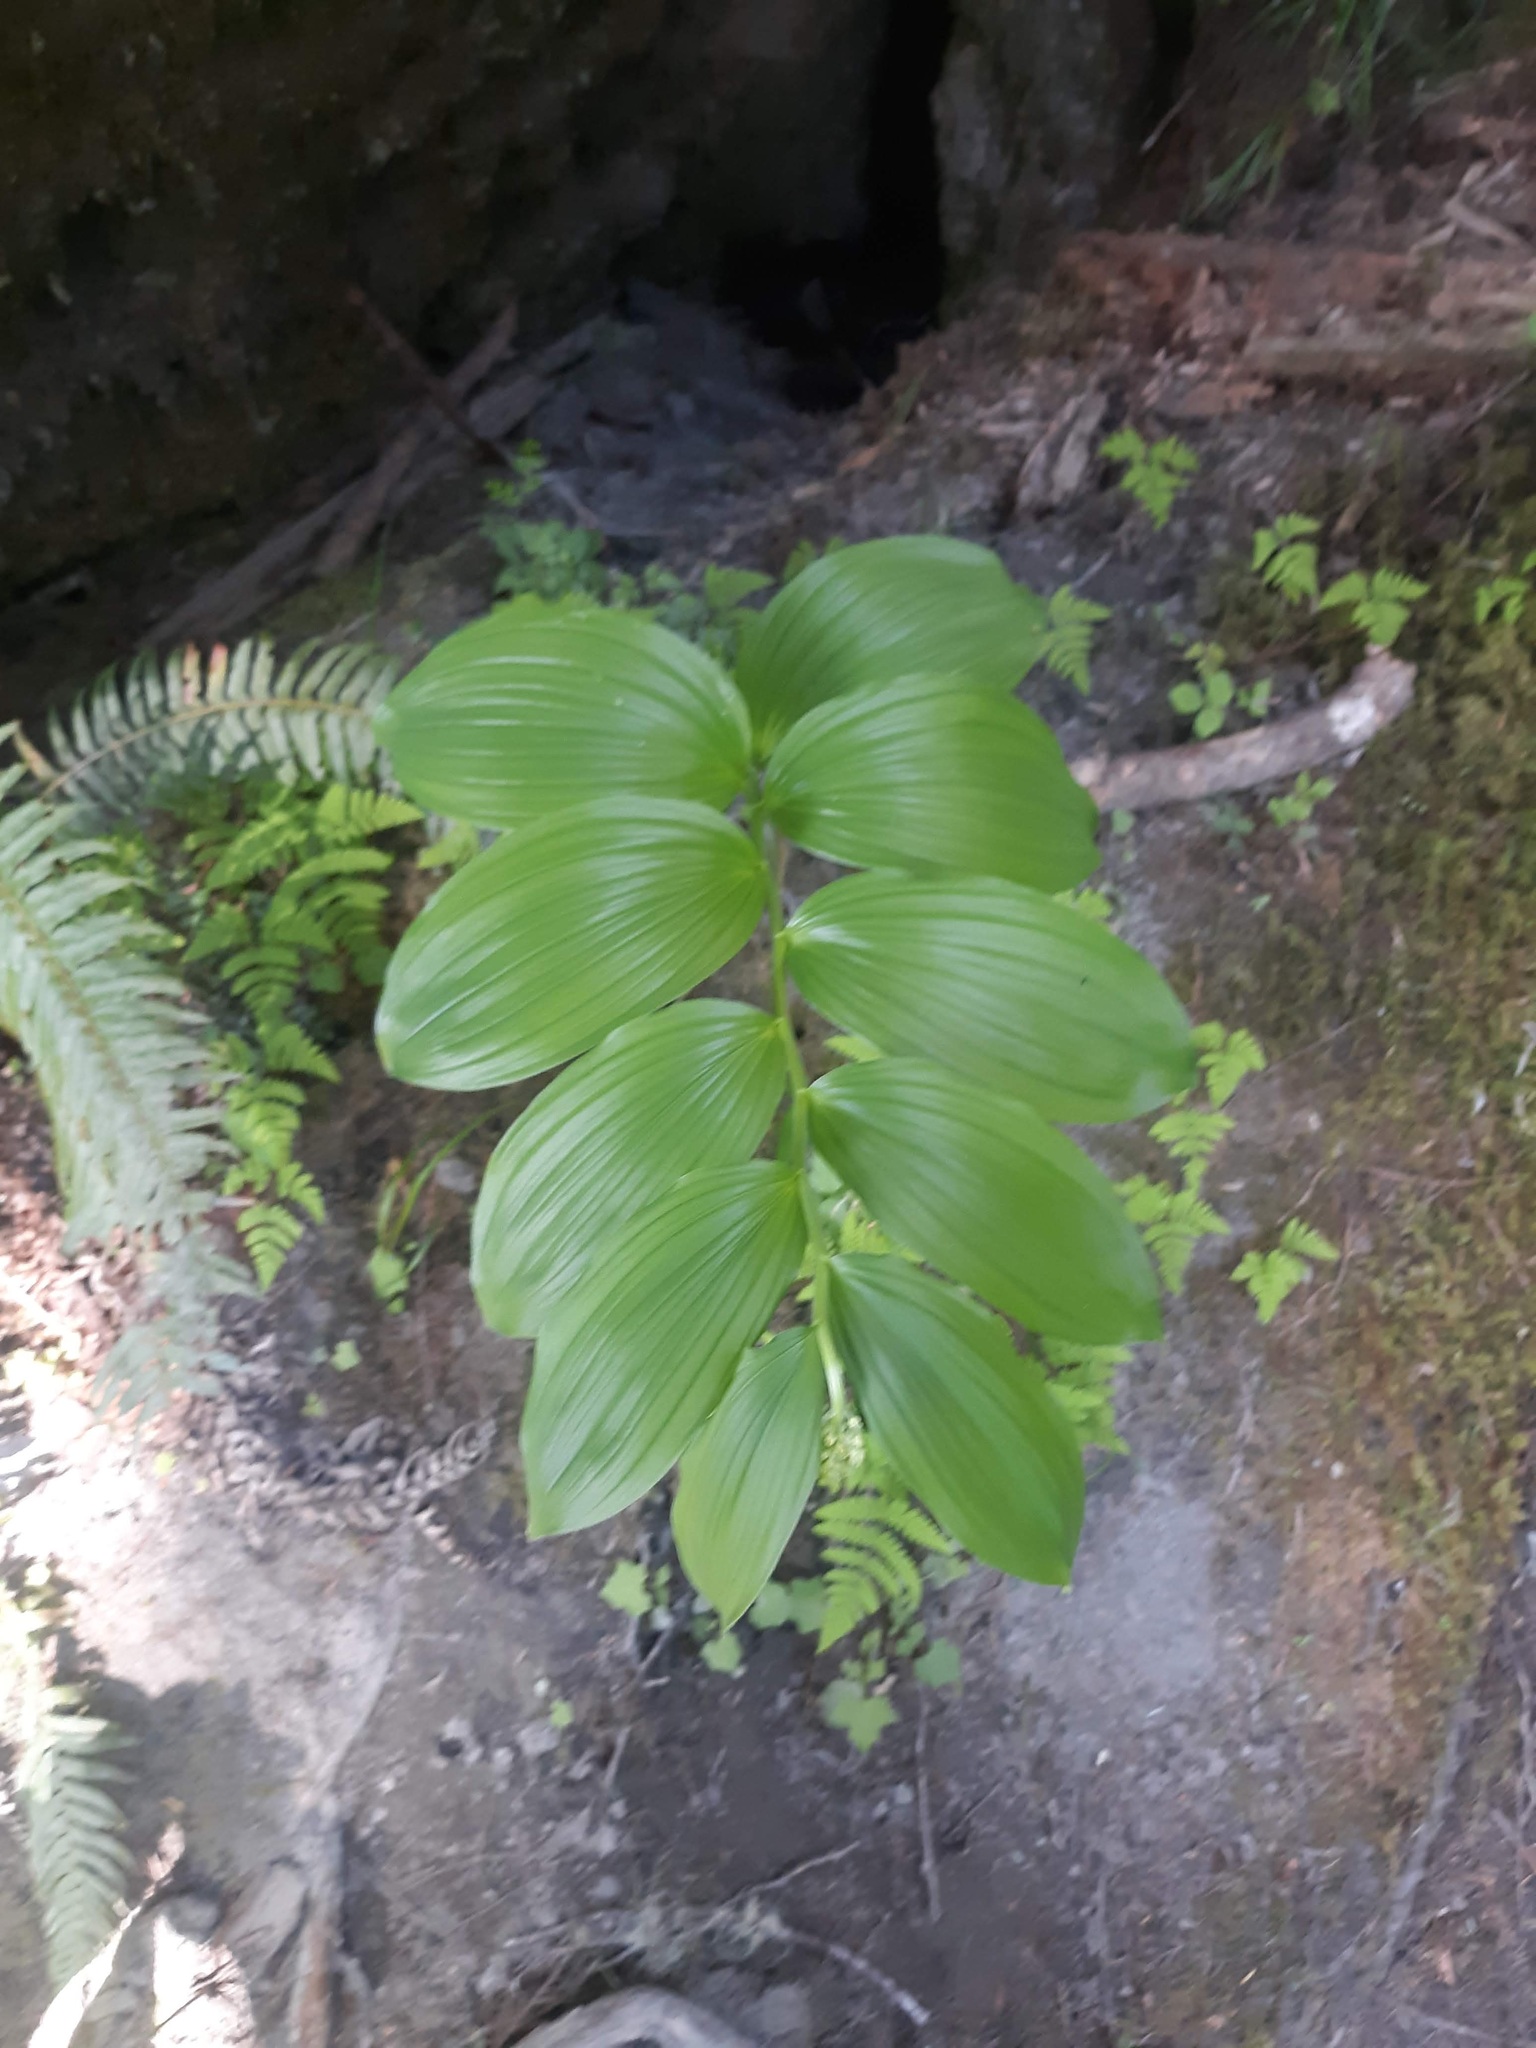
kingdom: Plantae
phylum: Tracheophyta
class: Liliopsida
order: Asparagales
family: Asparagaceae
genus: Maianthemum
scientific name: Maianthemum racemosum
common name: False spikenard
